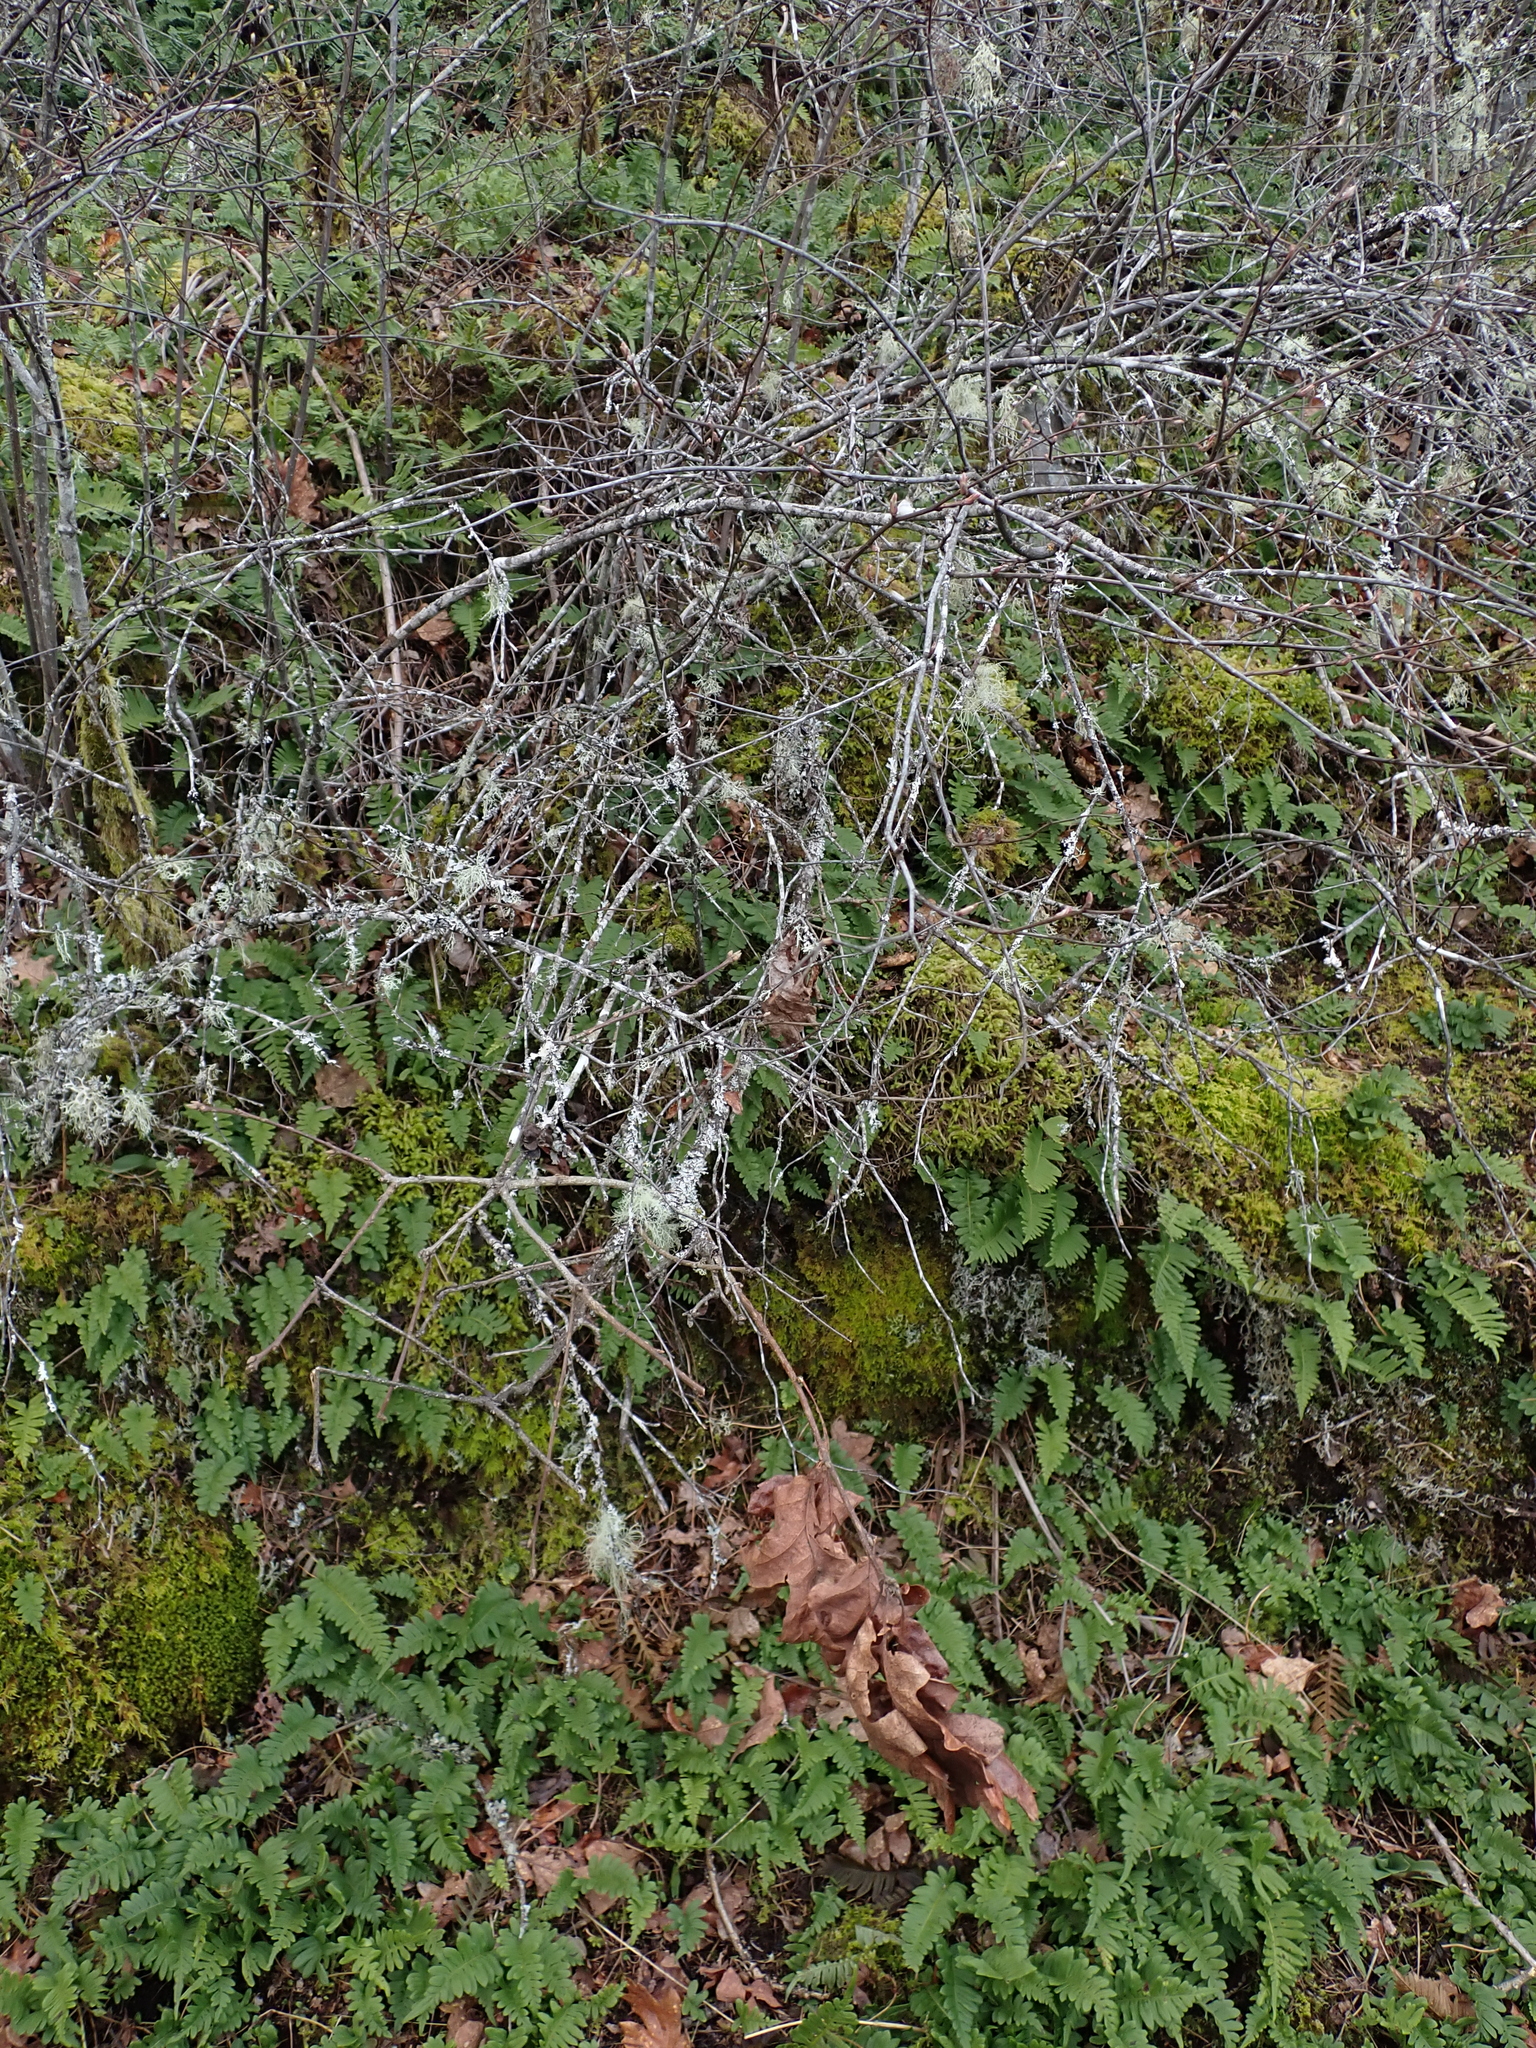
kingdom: Plantae
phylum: Tracheophyta
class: Magnoliopsida
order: Fagales
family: Fagaceae
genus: Quercus
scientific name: Quercus garryana
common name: Garry oak
